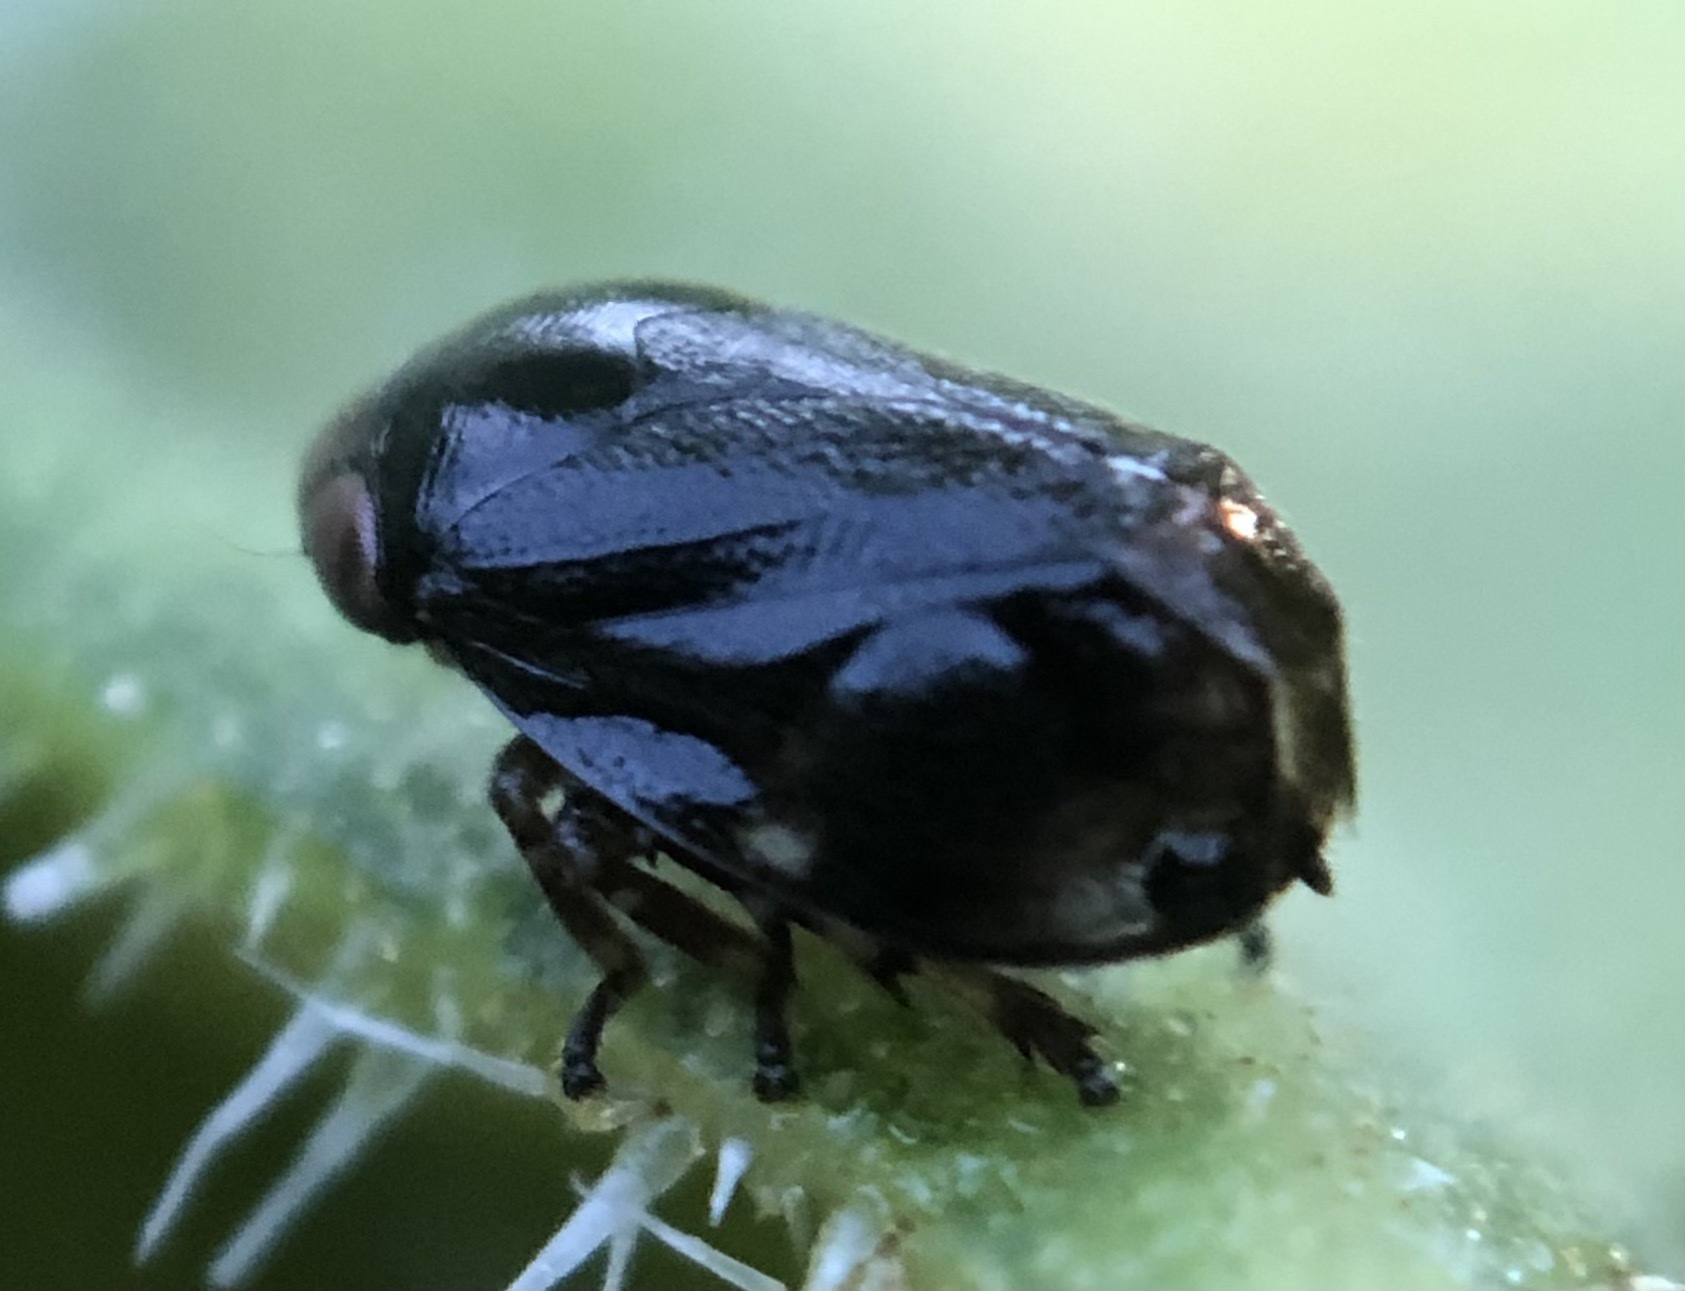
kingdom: Animalia
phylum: Arthropoda
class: Insecta
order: Hemiptera
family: Clastopteridae
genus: Clastoptera
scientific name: Clastoptera xanthocephala
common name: Sunflower spittlebug
